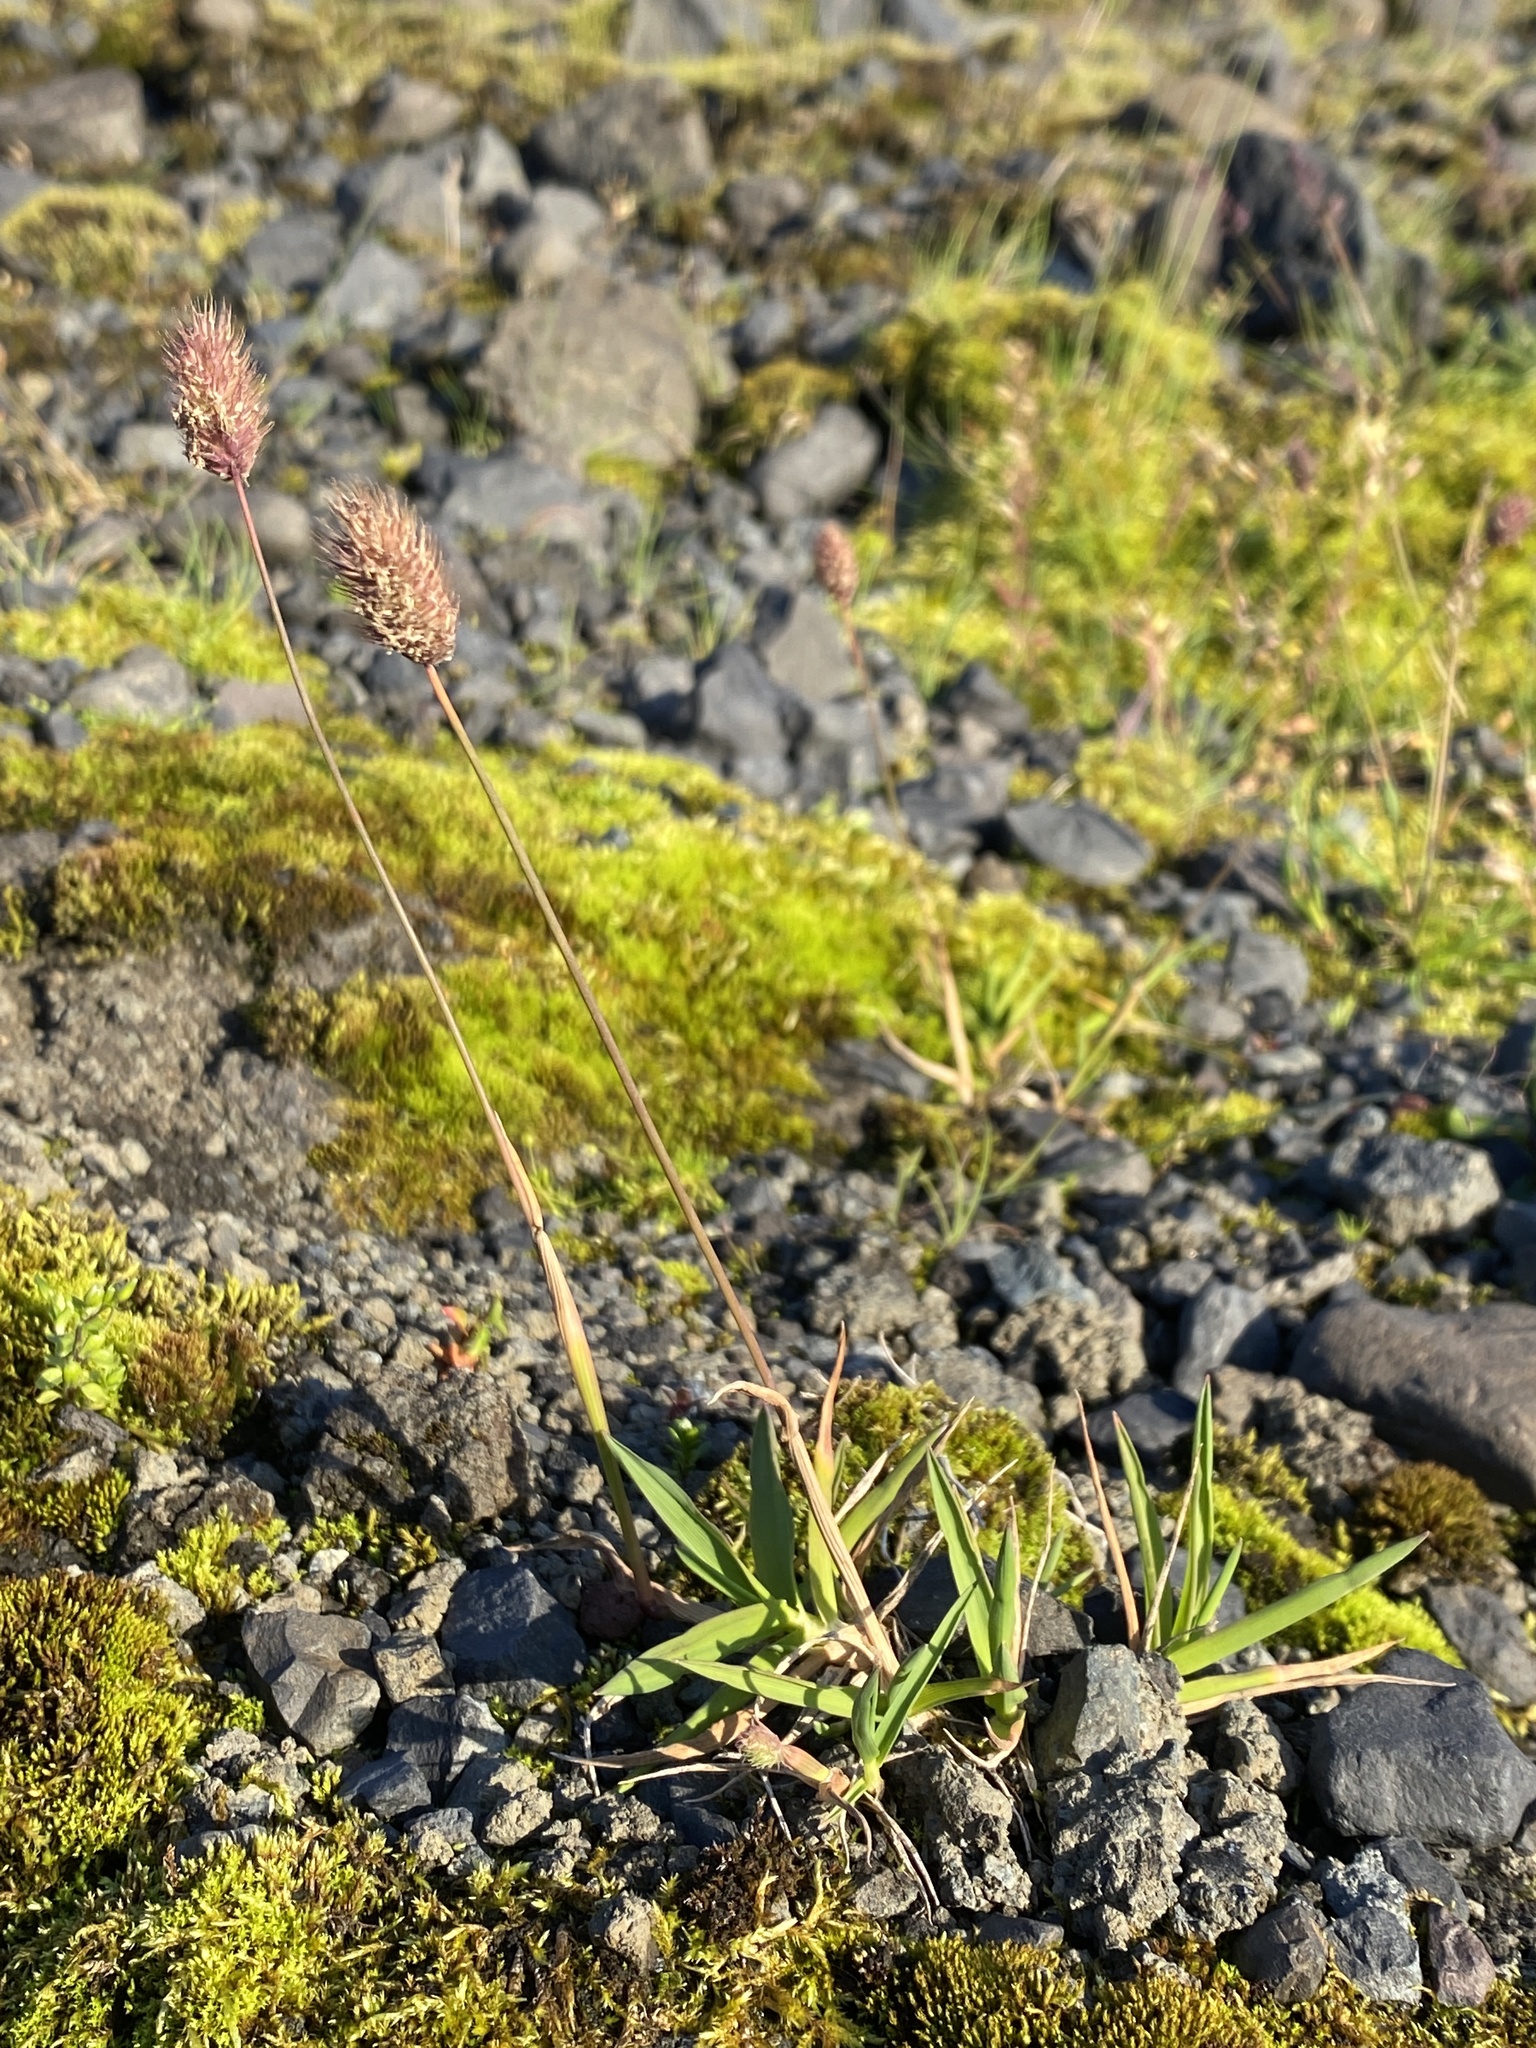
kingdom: Plantae
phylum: Tracheophyta
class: Liliopsida
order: Poales
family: Poaceae
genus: Phleum
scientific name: Phleum alpinum
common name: Alpine cat's-tail
